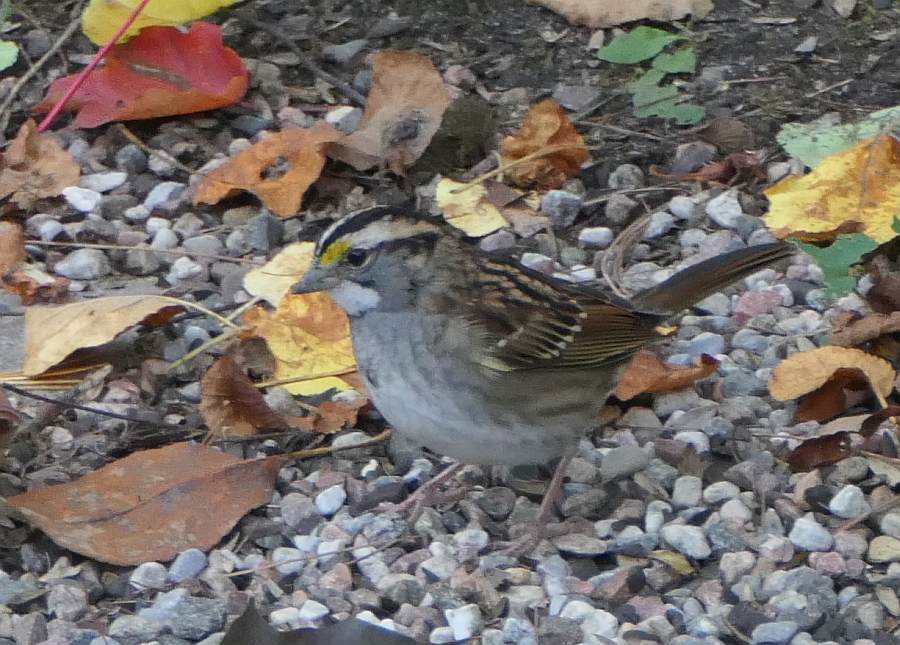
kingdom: Animalia
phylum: Chordata
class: Aves
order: Passeriformes
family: Passerellidae
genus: Zonotrichia
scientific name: Zonotrichia albicollis
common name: White-throated sparrow
